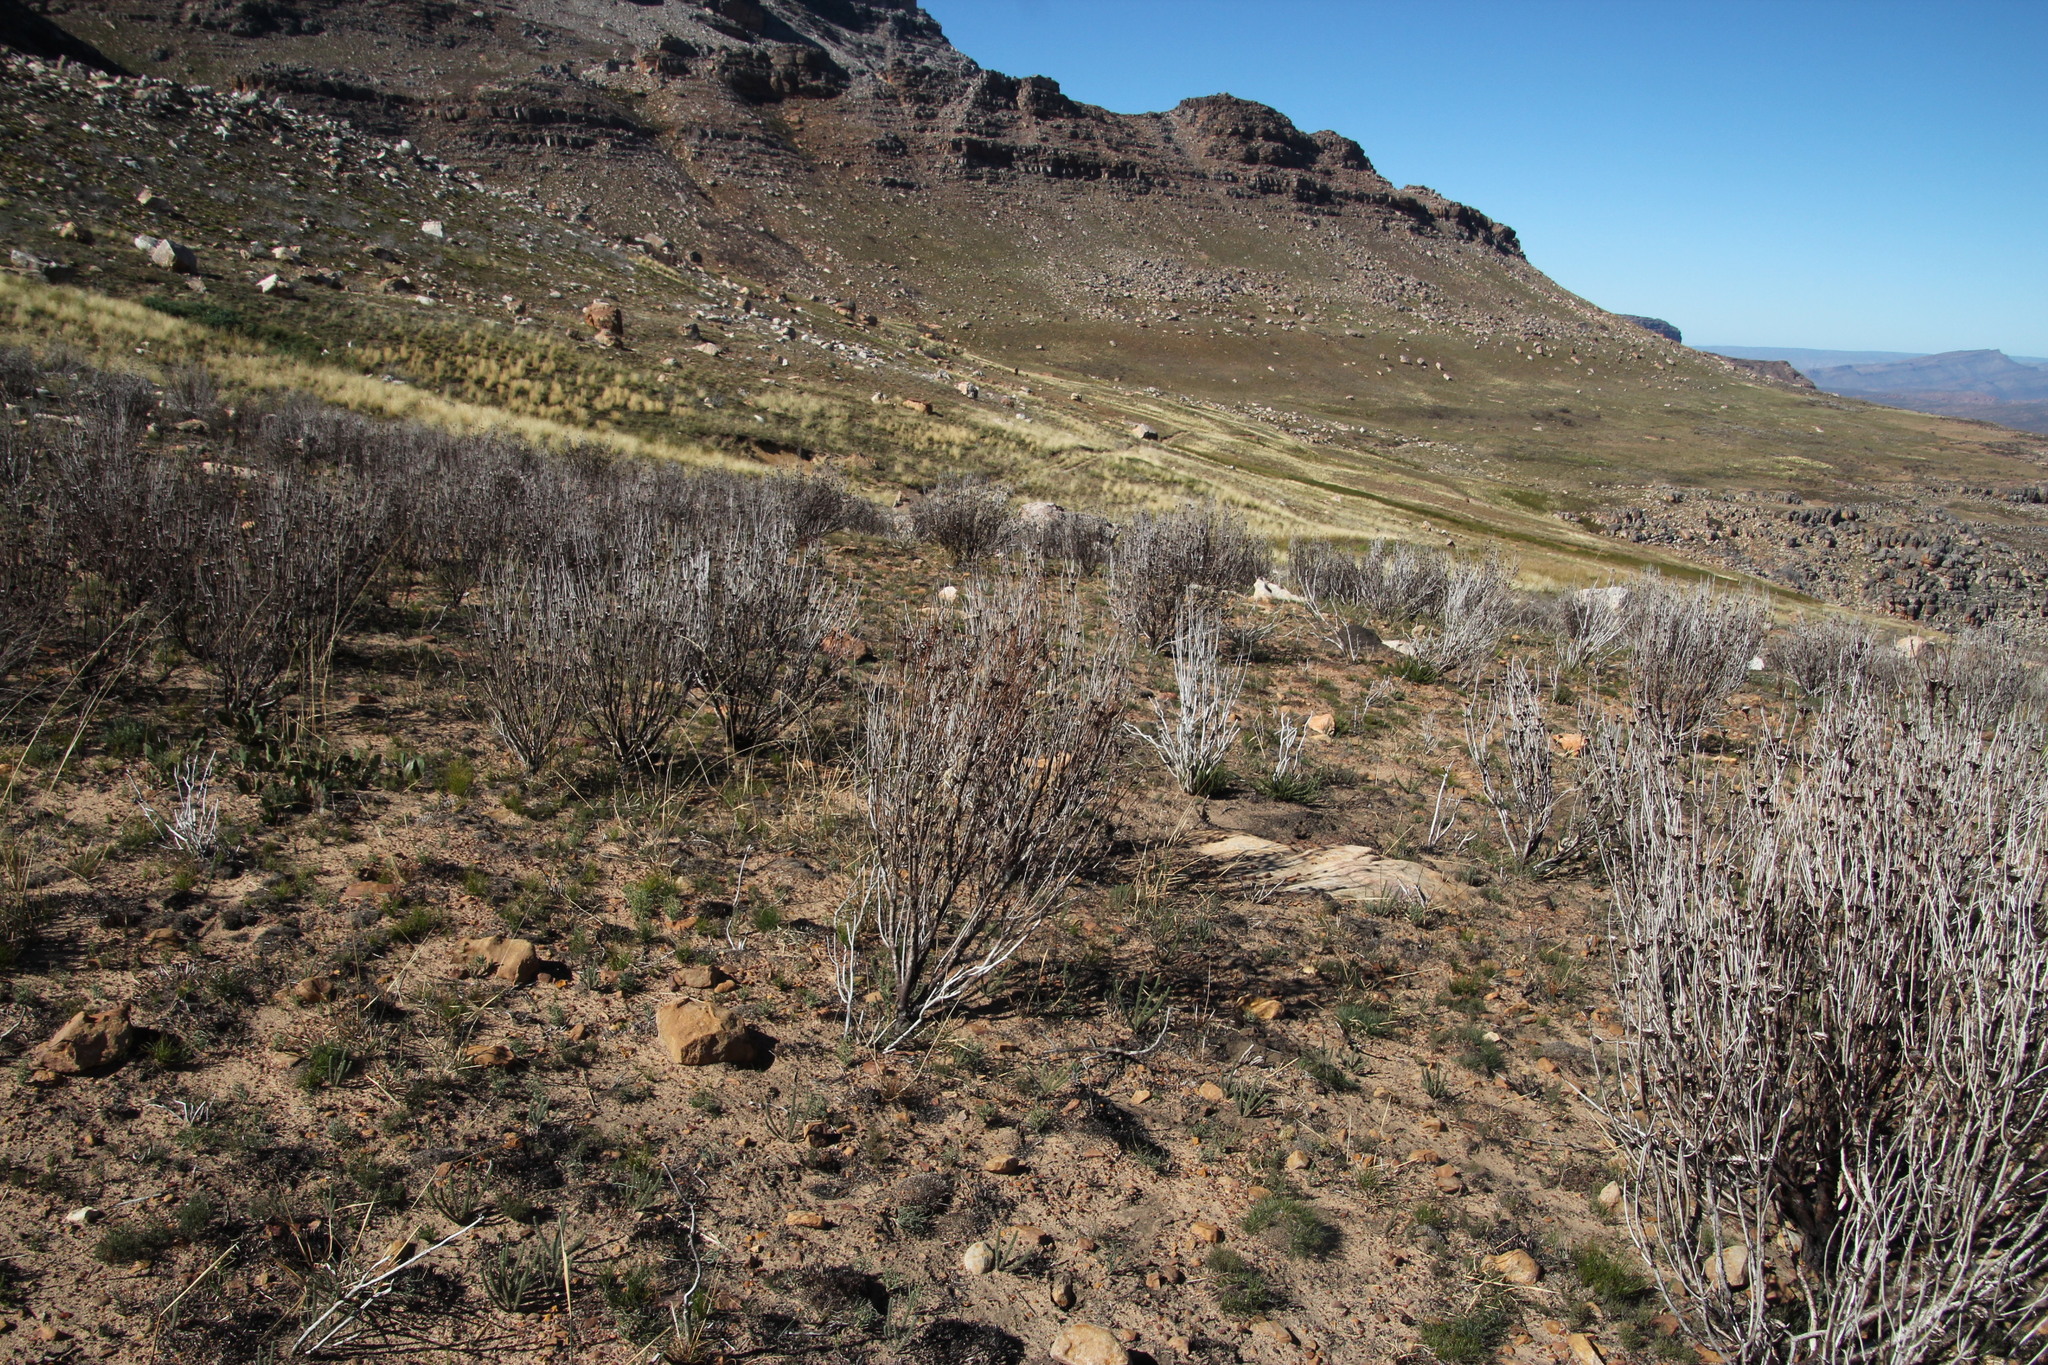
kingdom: Plantae
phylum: Tracheophyta
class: Magnoliopsida
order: Proteales
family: Proteaceae
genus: Protea
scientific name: Protea acuminata
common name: Black-rim sugarbush
